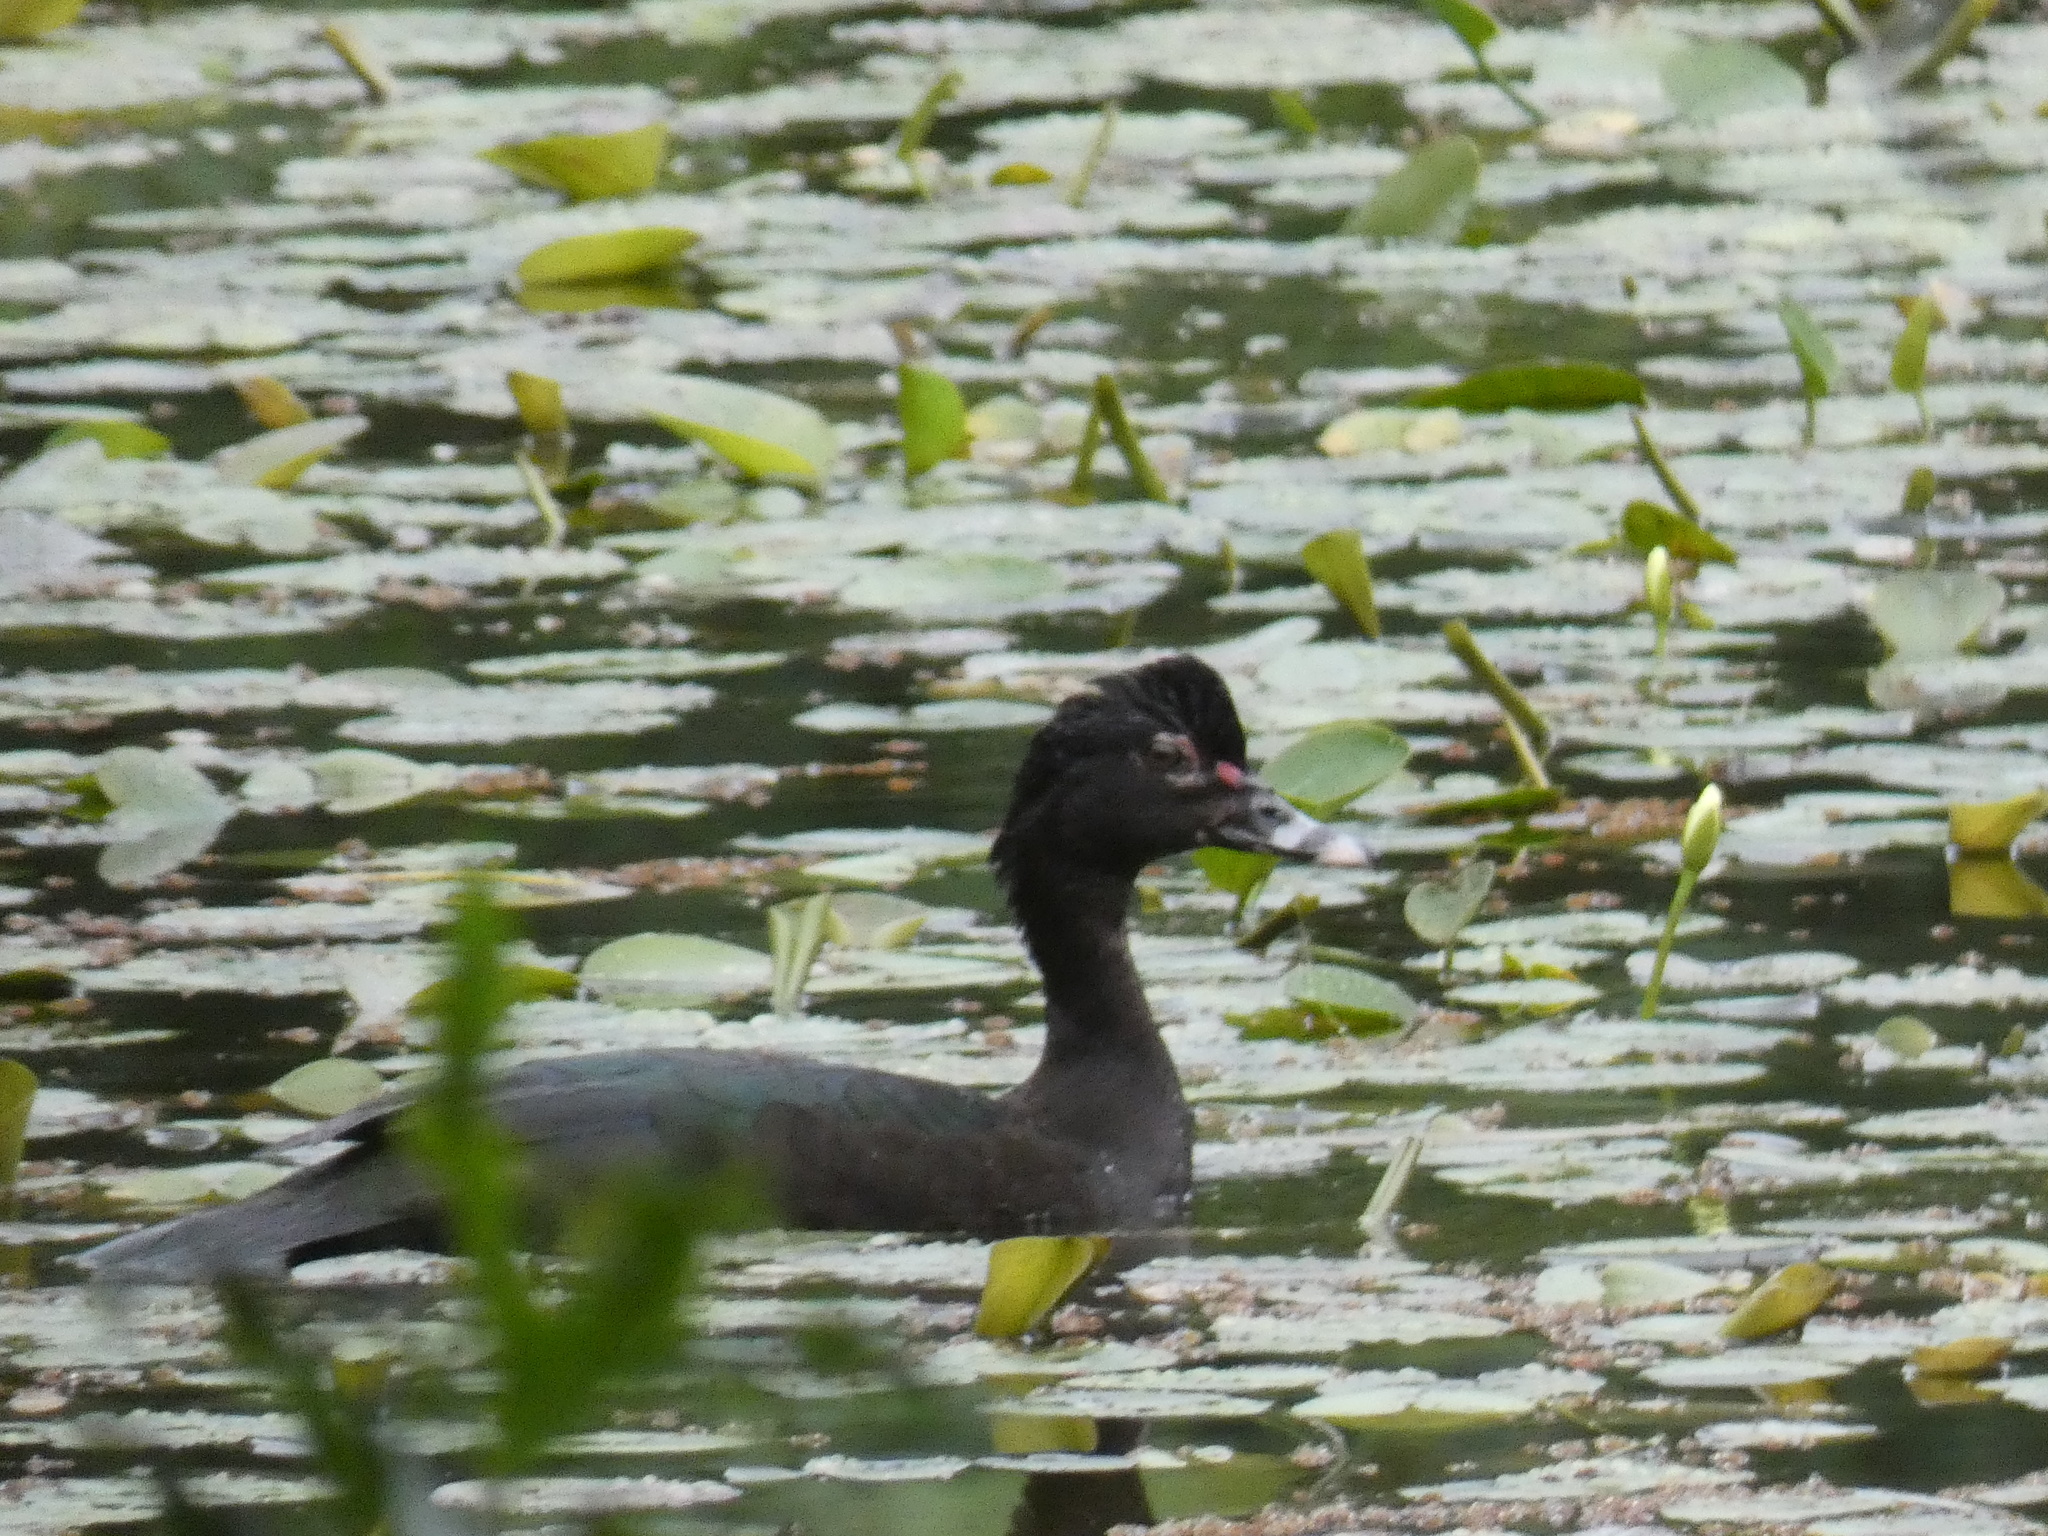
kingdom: Animalia
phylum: Chordata
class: Aves
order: Anseriformes
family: Anatidae
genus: Cairina
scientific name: Cairina moschata
